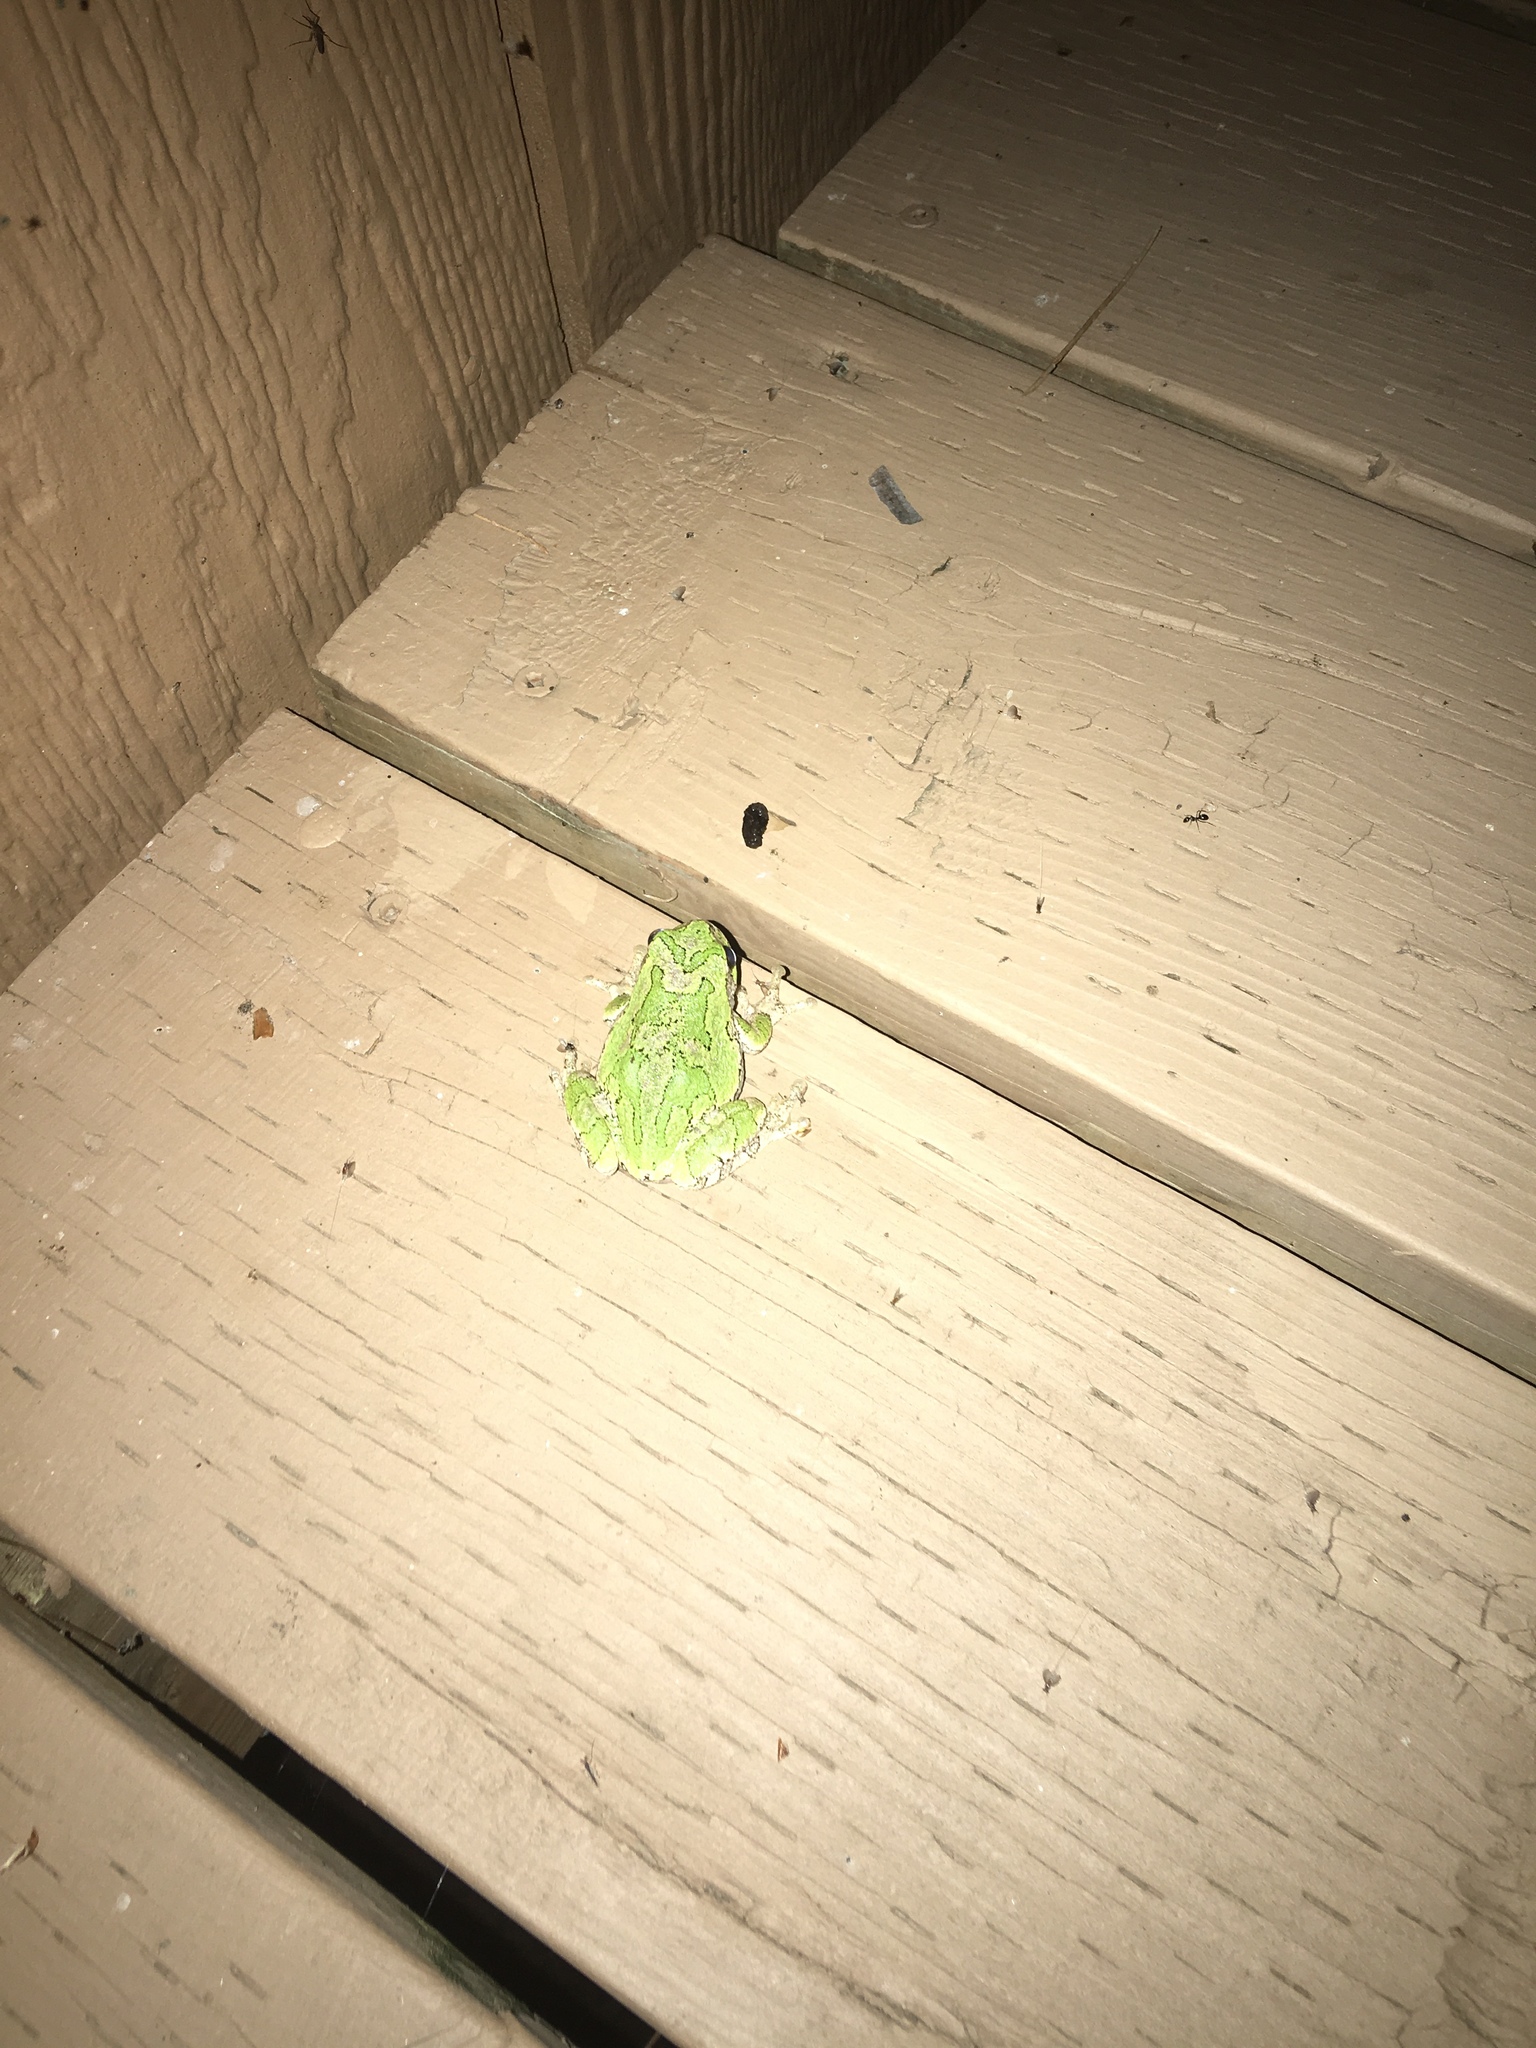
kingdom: Animalia
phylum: Chordata
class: Amphibia
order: Anura
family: Hylidae
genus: Dryophytes
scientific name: Dryophytes versicolor
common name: Gray treefrog
